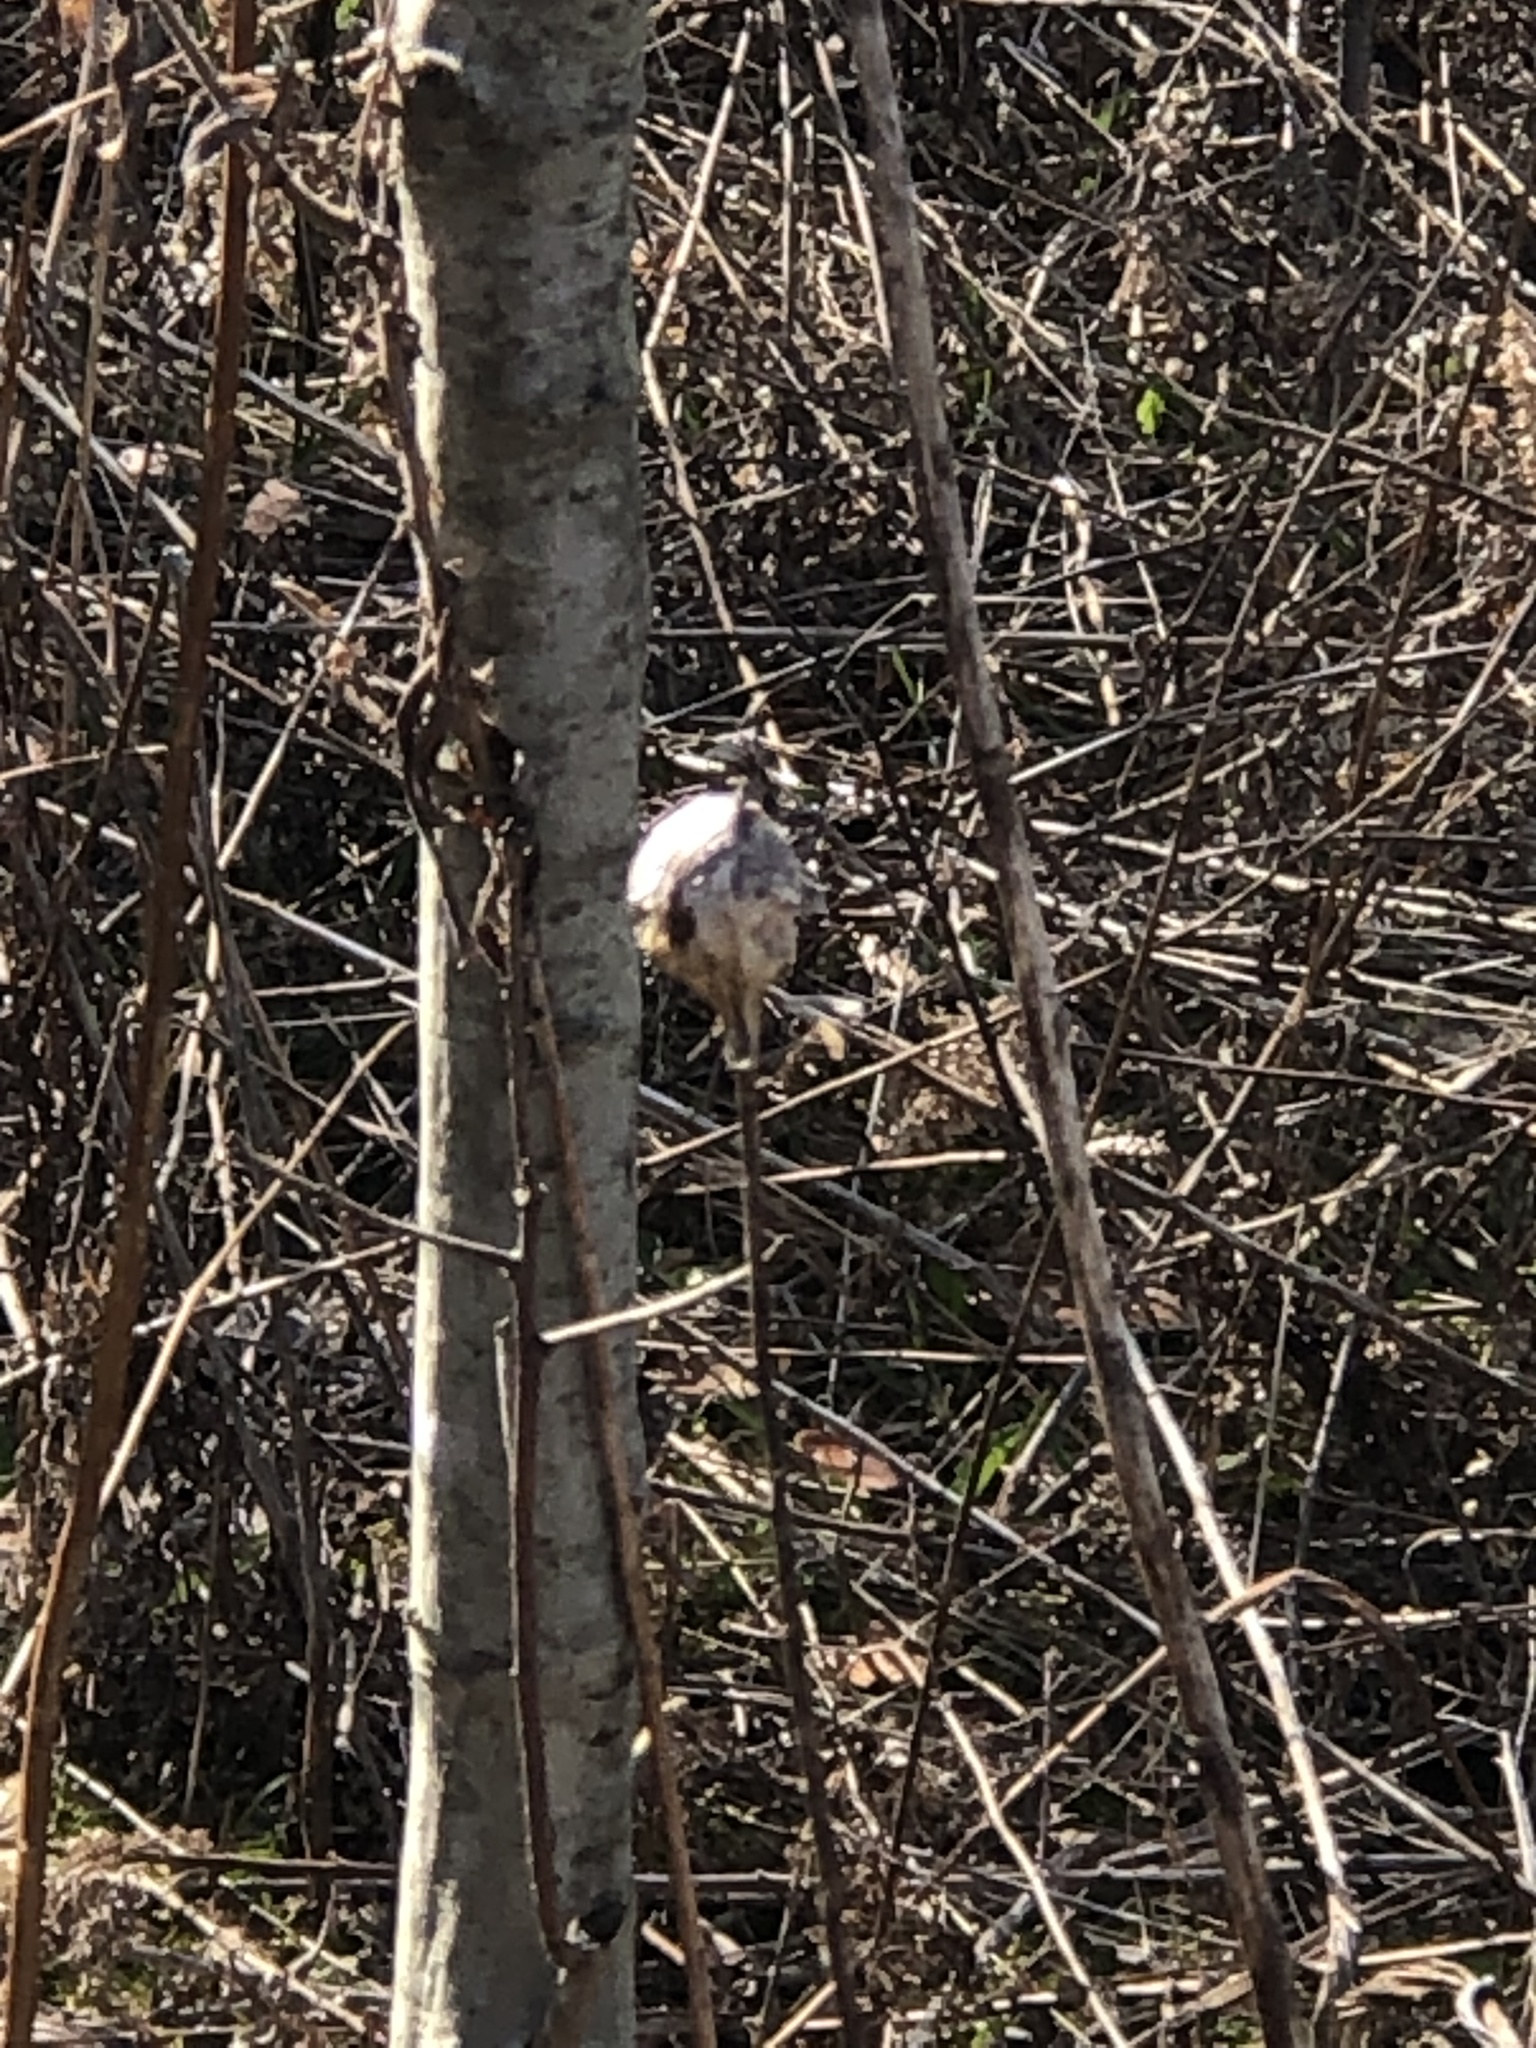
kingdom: Animalia
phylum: Arthropoda
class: Insecta
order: Diptera
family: Cecidomyiidae
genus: Rabdophaga
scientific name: Rabdophaga strobiloides
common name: Willow pinecone gall midge
